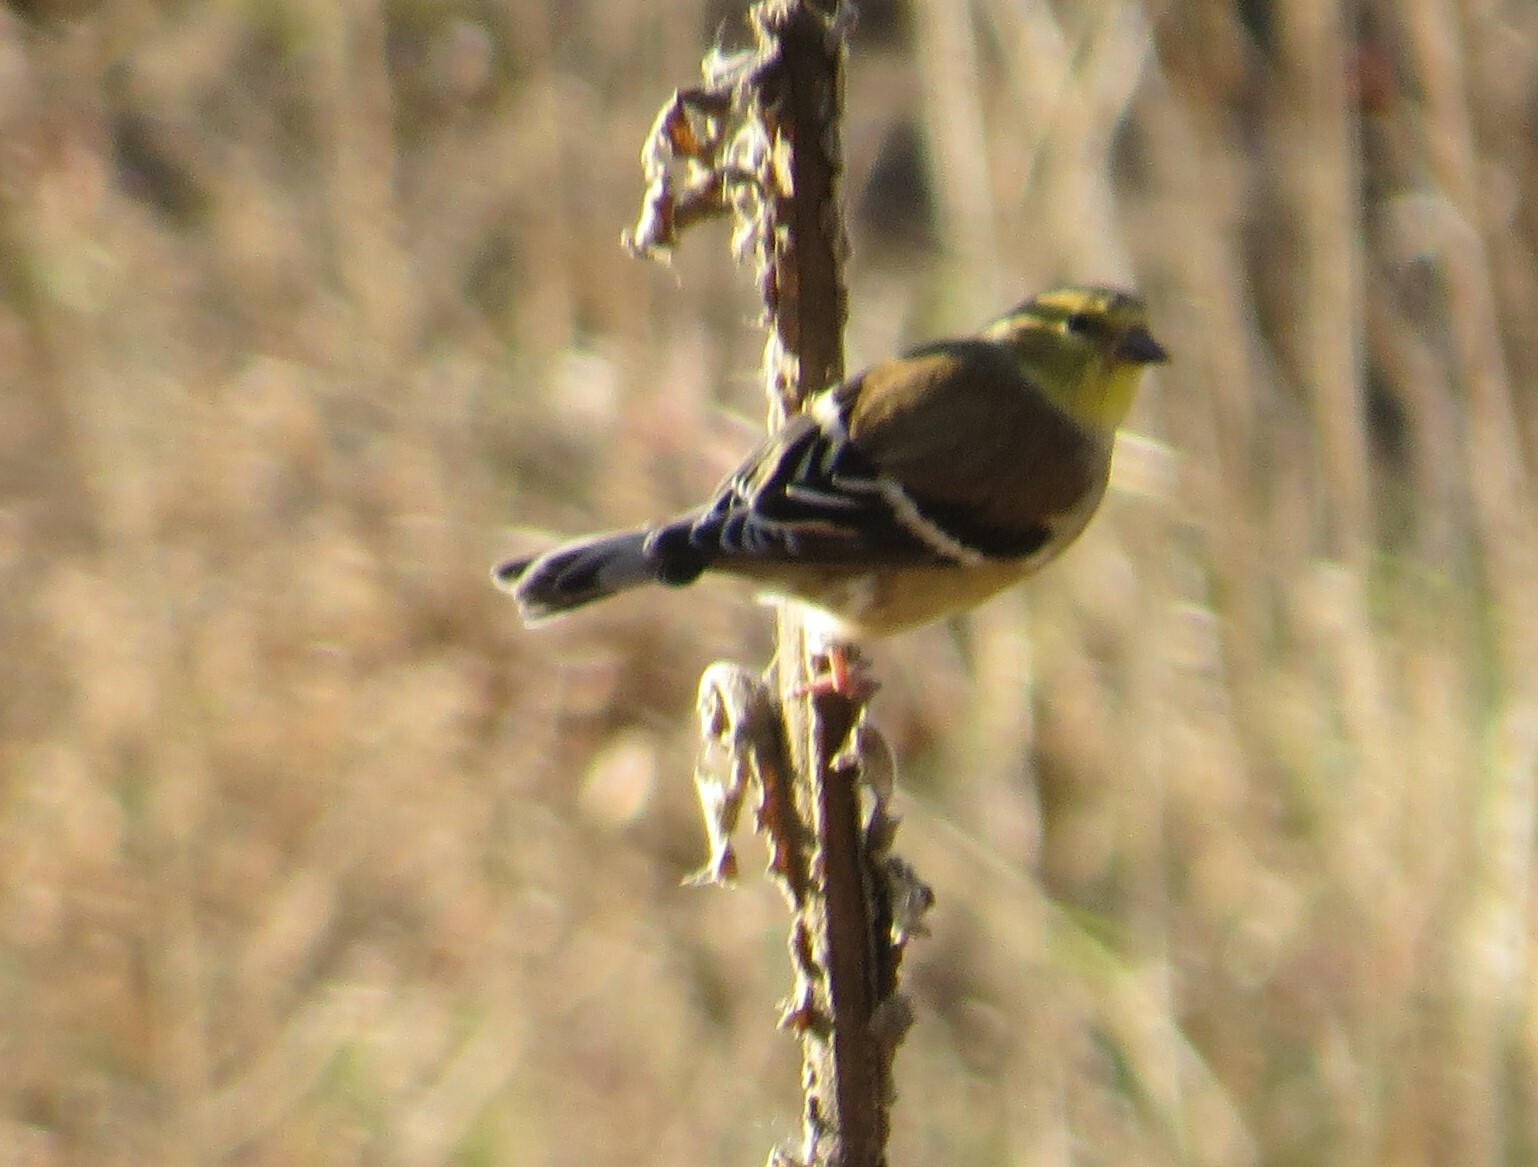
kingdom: Animalia
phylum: Chordata
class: Aves
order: Passeriformes
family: Fringillidae
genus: Spinus
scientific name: Spinus tristis
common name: American goldfinch
